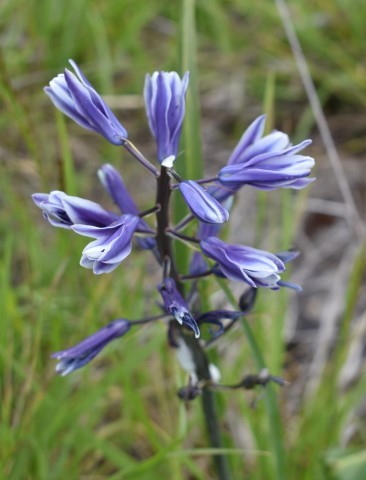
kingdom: Plantae
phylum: Tracheophyta
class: Liliopsida
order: Asparagales
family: Asparagaceae
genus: Camassia
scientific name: Camassia leichtlinii
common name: Leichtlin's camas
